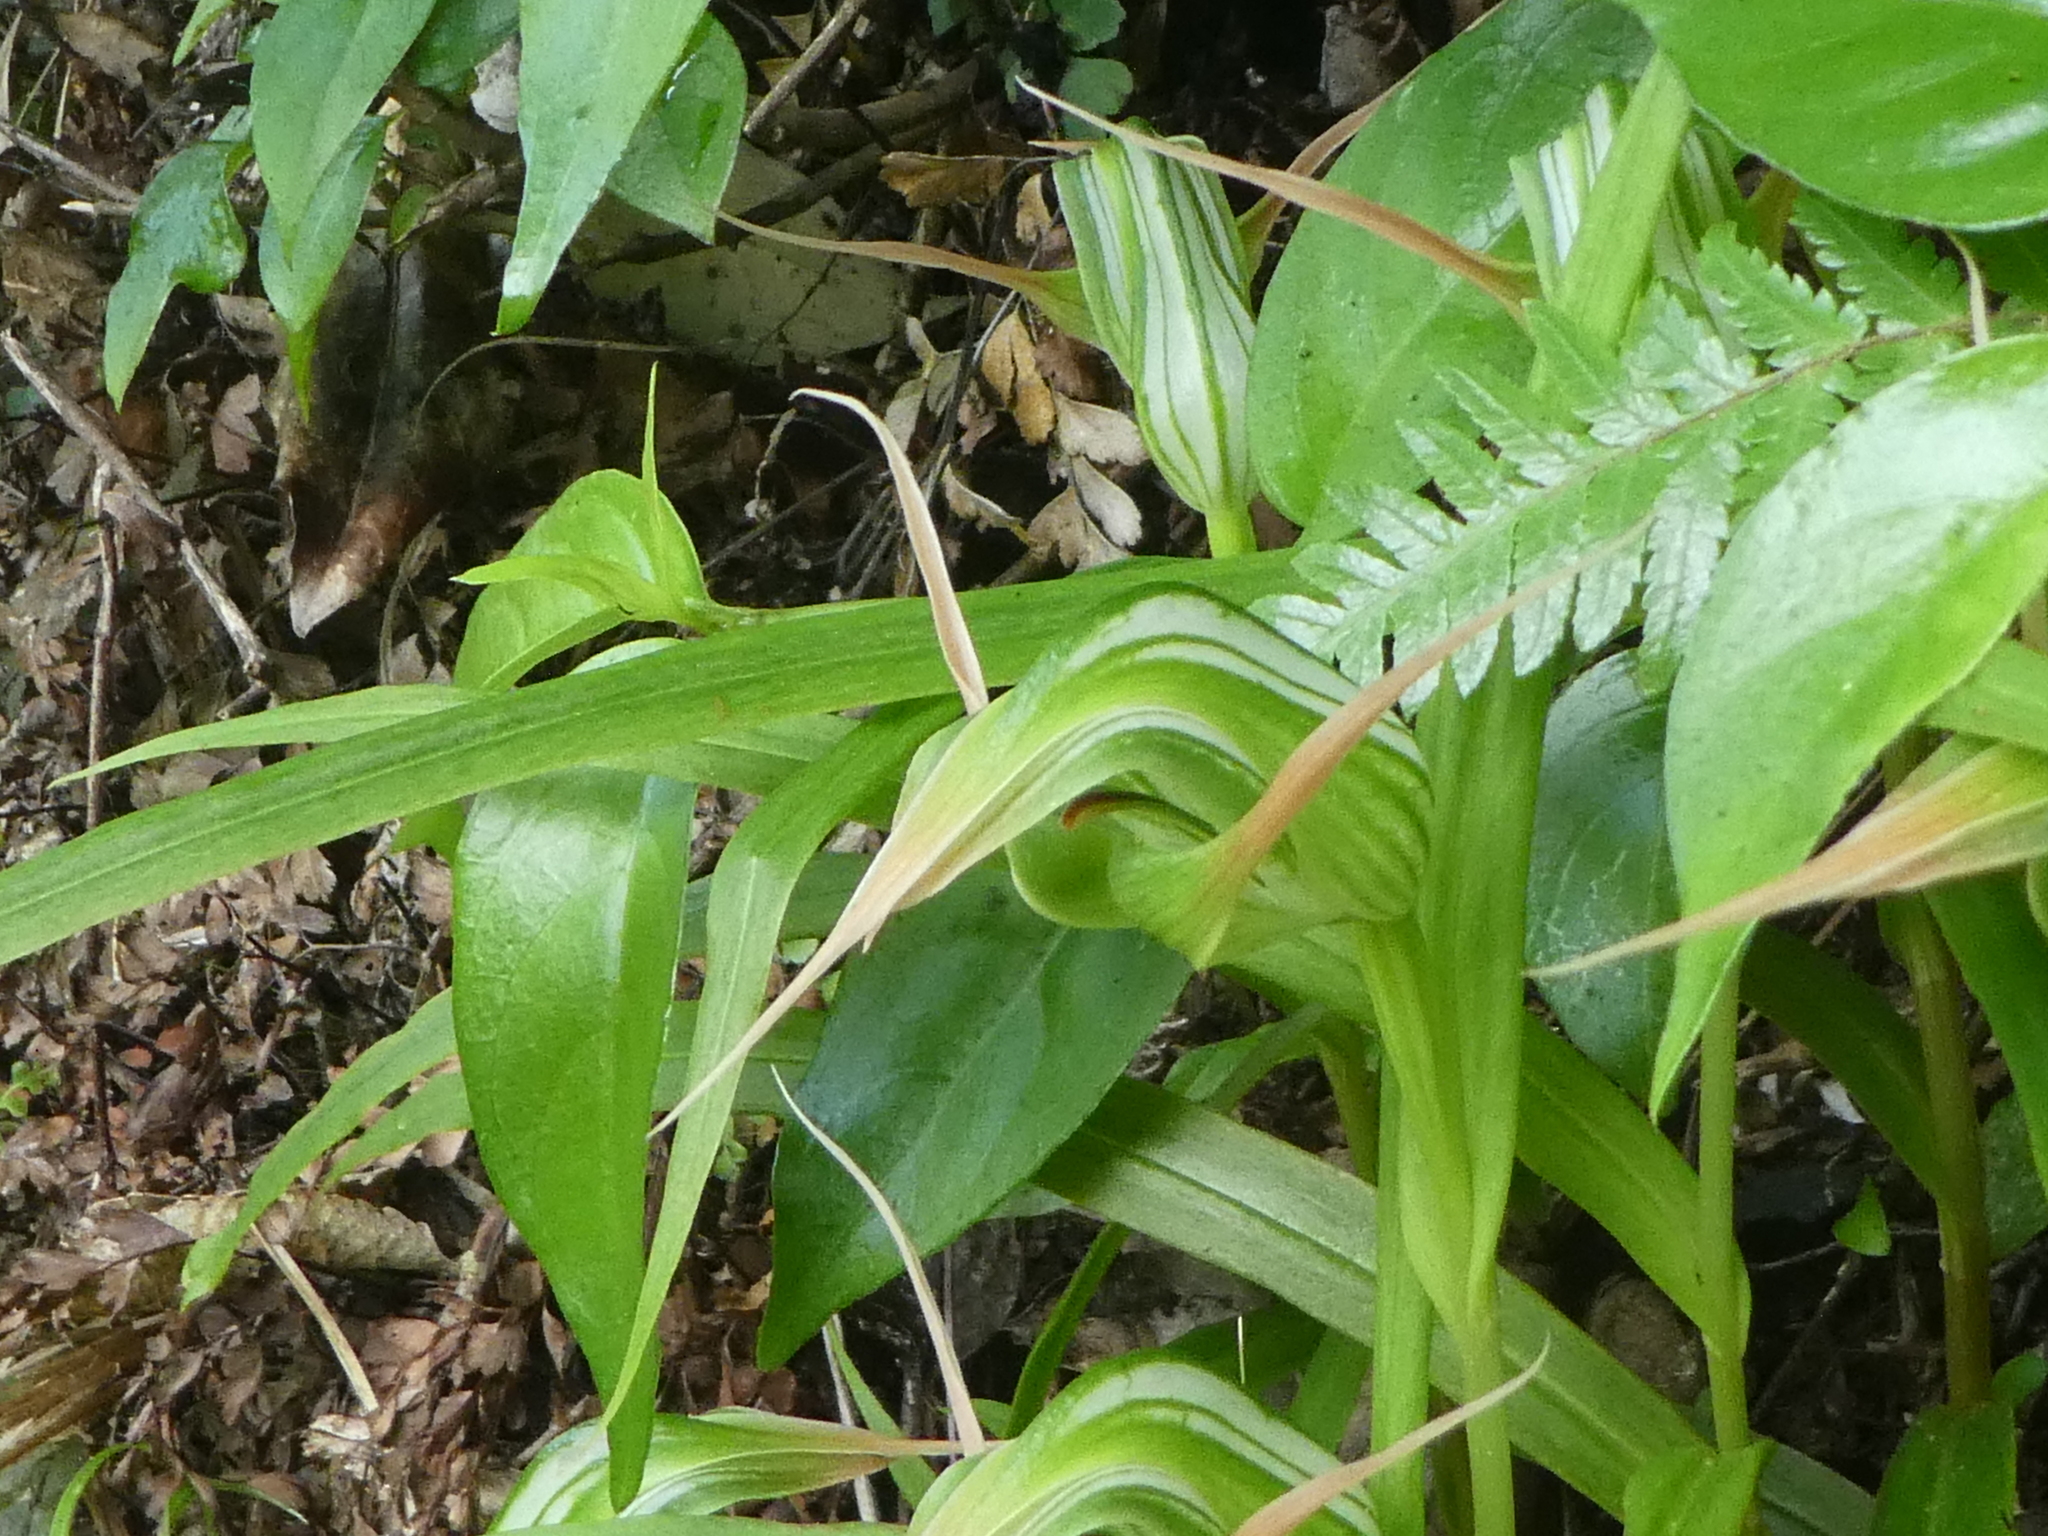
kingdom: Plantae
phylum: Tracheophyta
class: Liliopsida
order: Asparagales
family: Orchidaceae
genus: Pterostylis
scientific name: Pterostylis banksii
